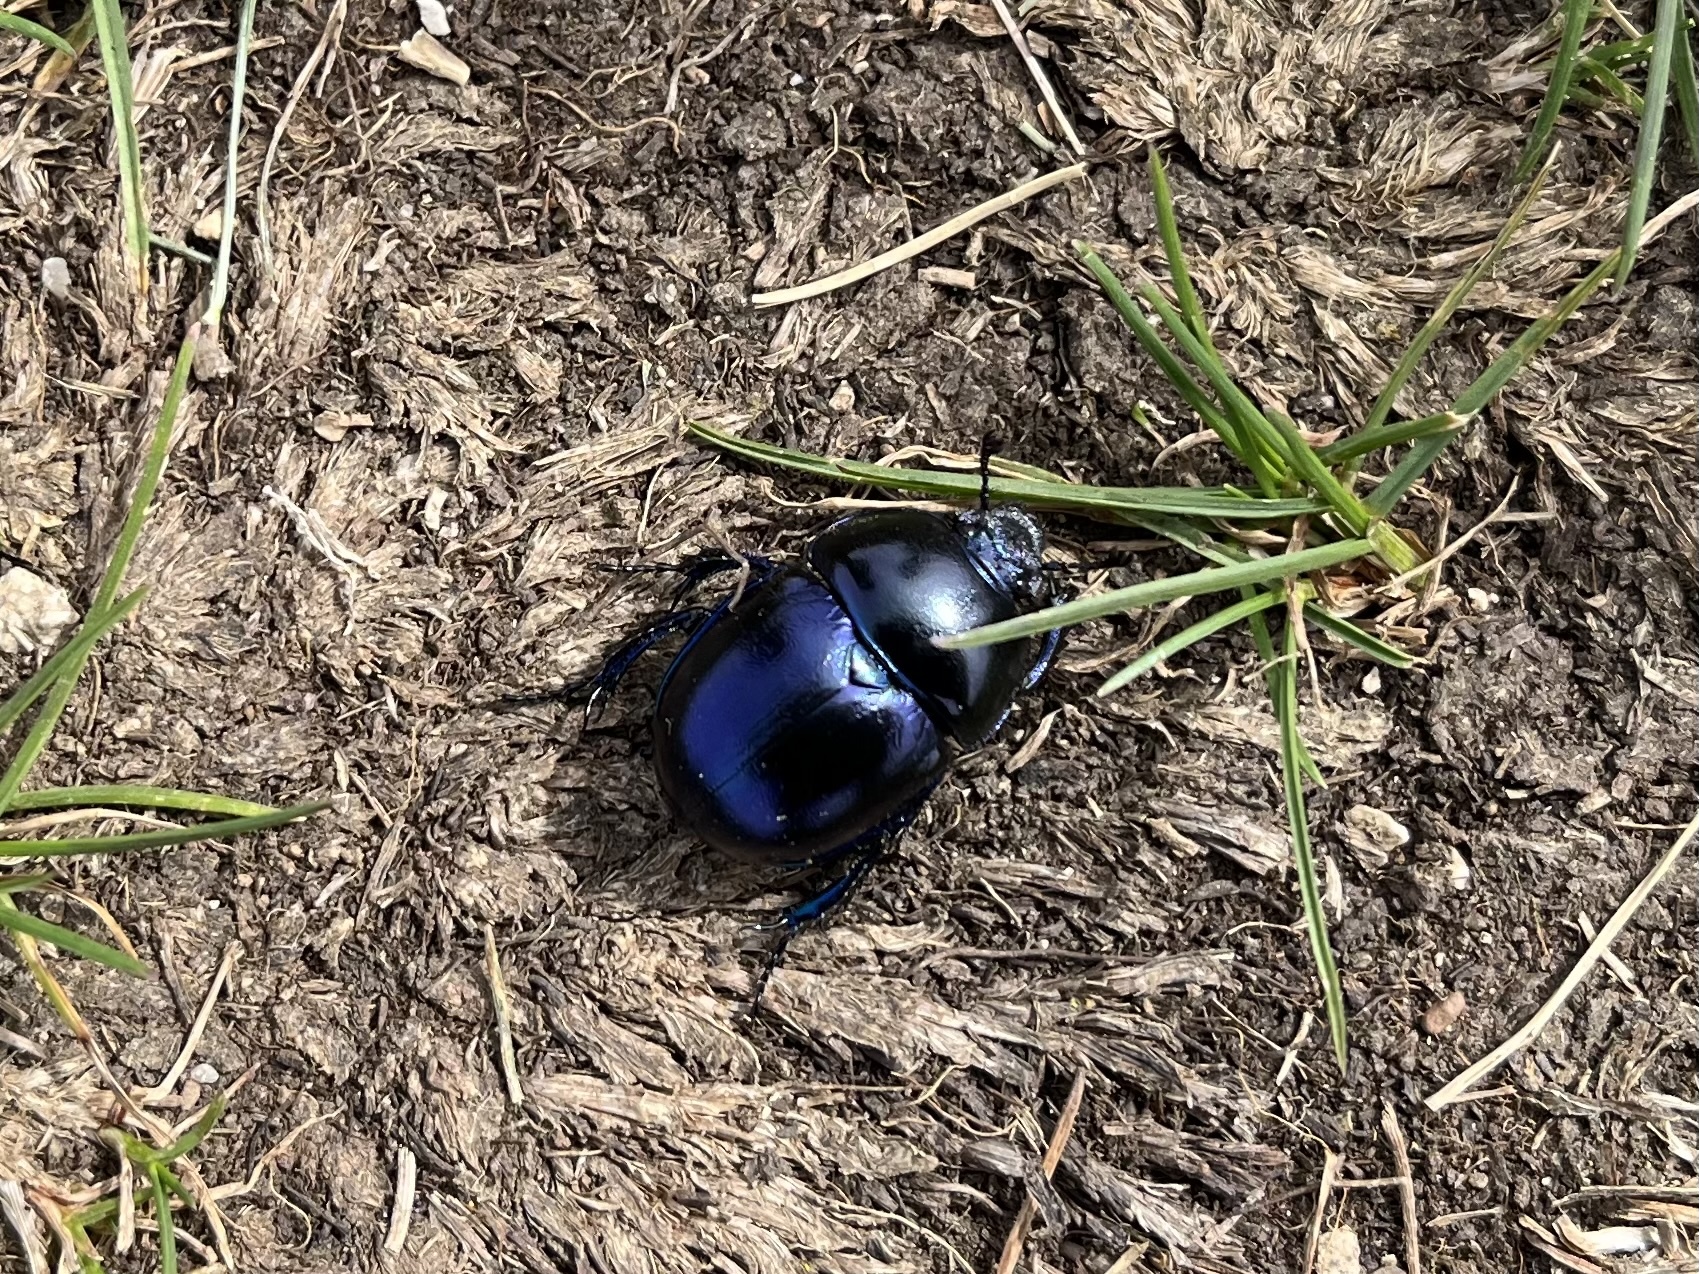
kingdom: Animalia
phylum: Arthropoda
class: Insecta
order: Coleoptera
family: Geotrupidae
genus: Trypocopris
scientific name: Trypocopris vernalis
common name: Spring dumbledor
